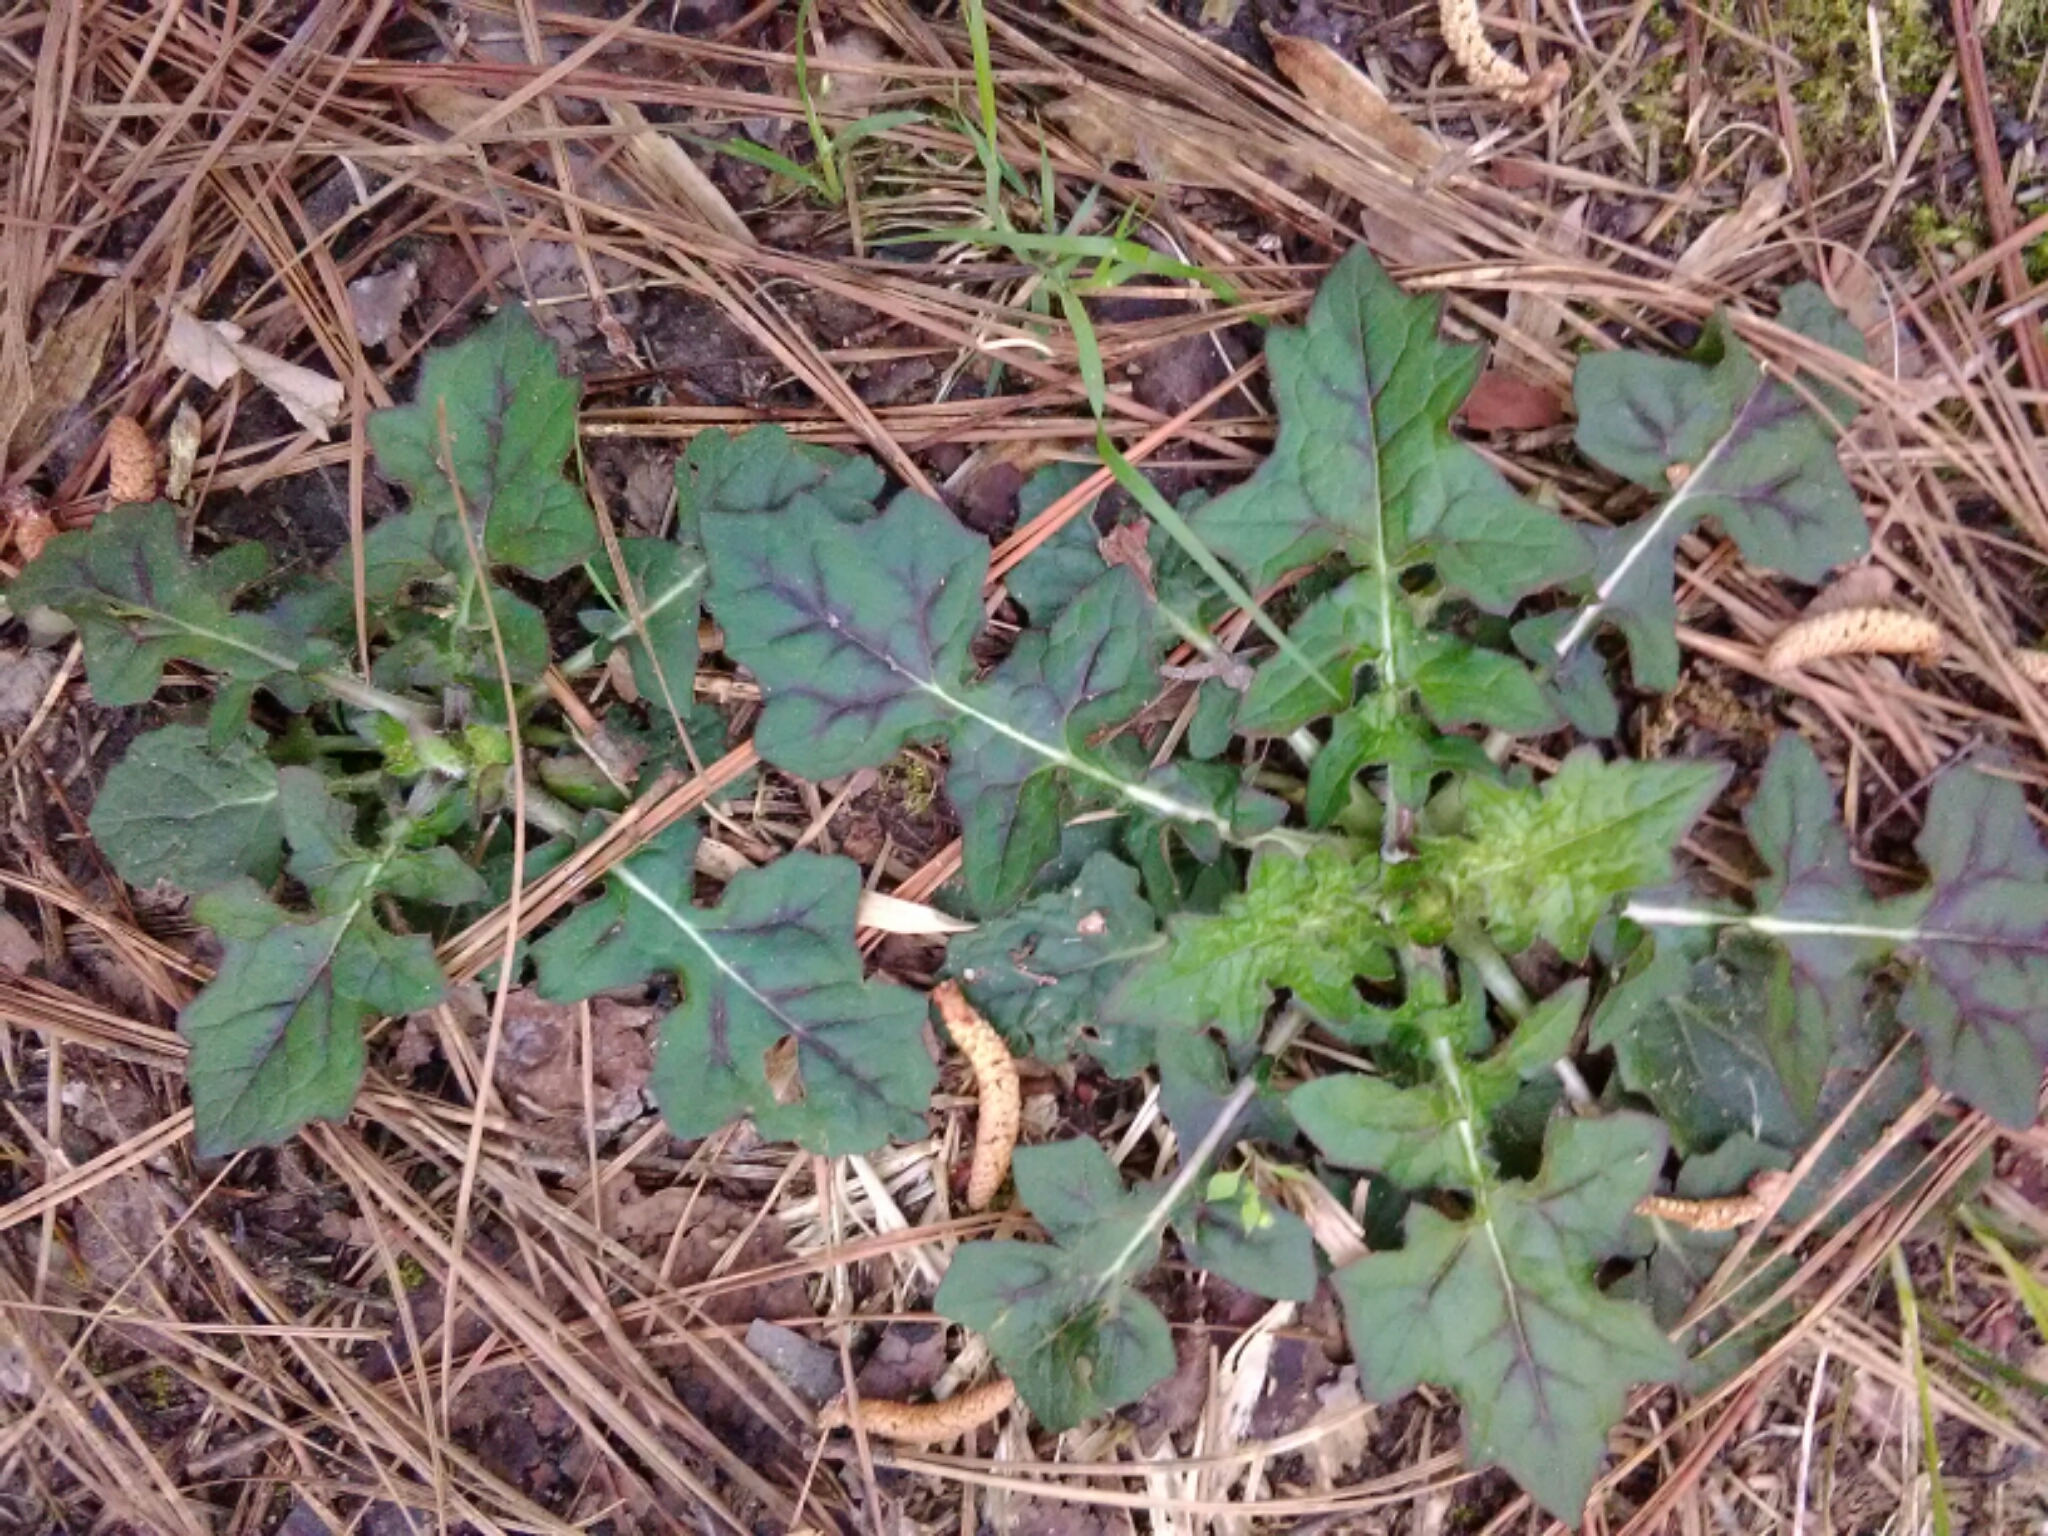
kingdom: Plantae
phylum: Tracheophyta
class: Magnoliopsida
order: Lamiales
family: Lamiaceae
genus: Salvia
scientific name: Salvia lyrata
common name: Cancerweed
